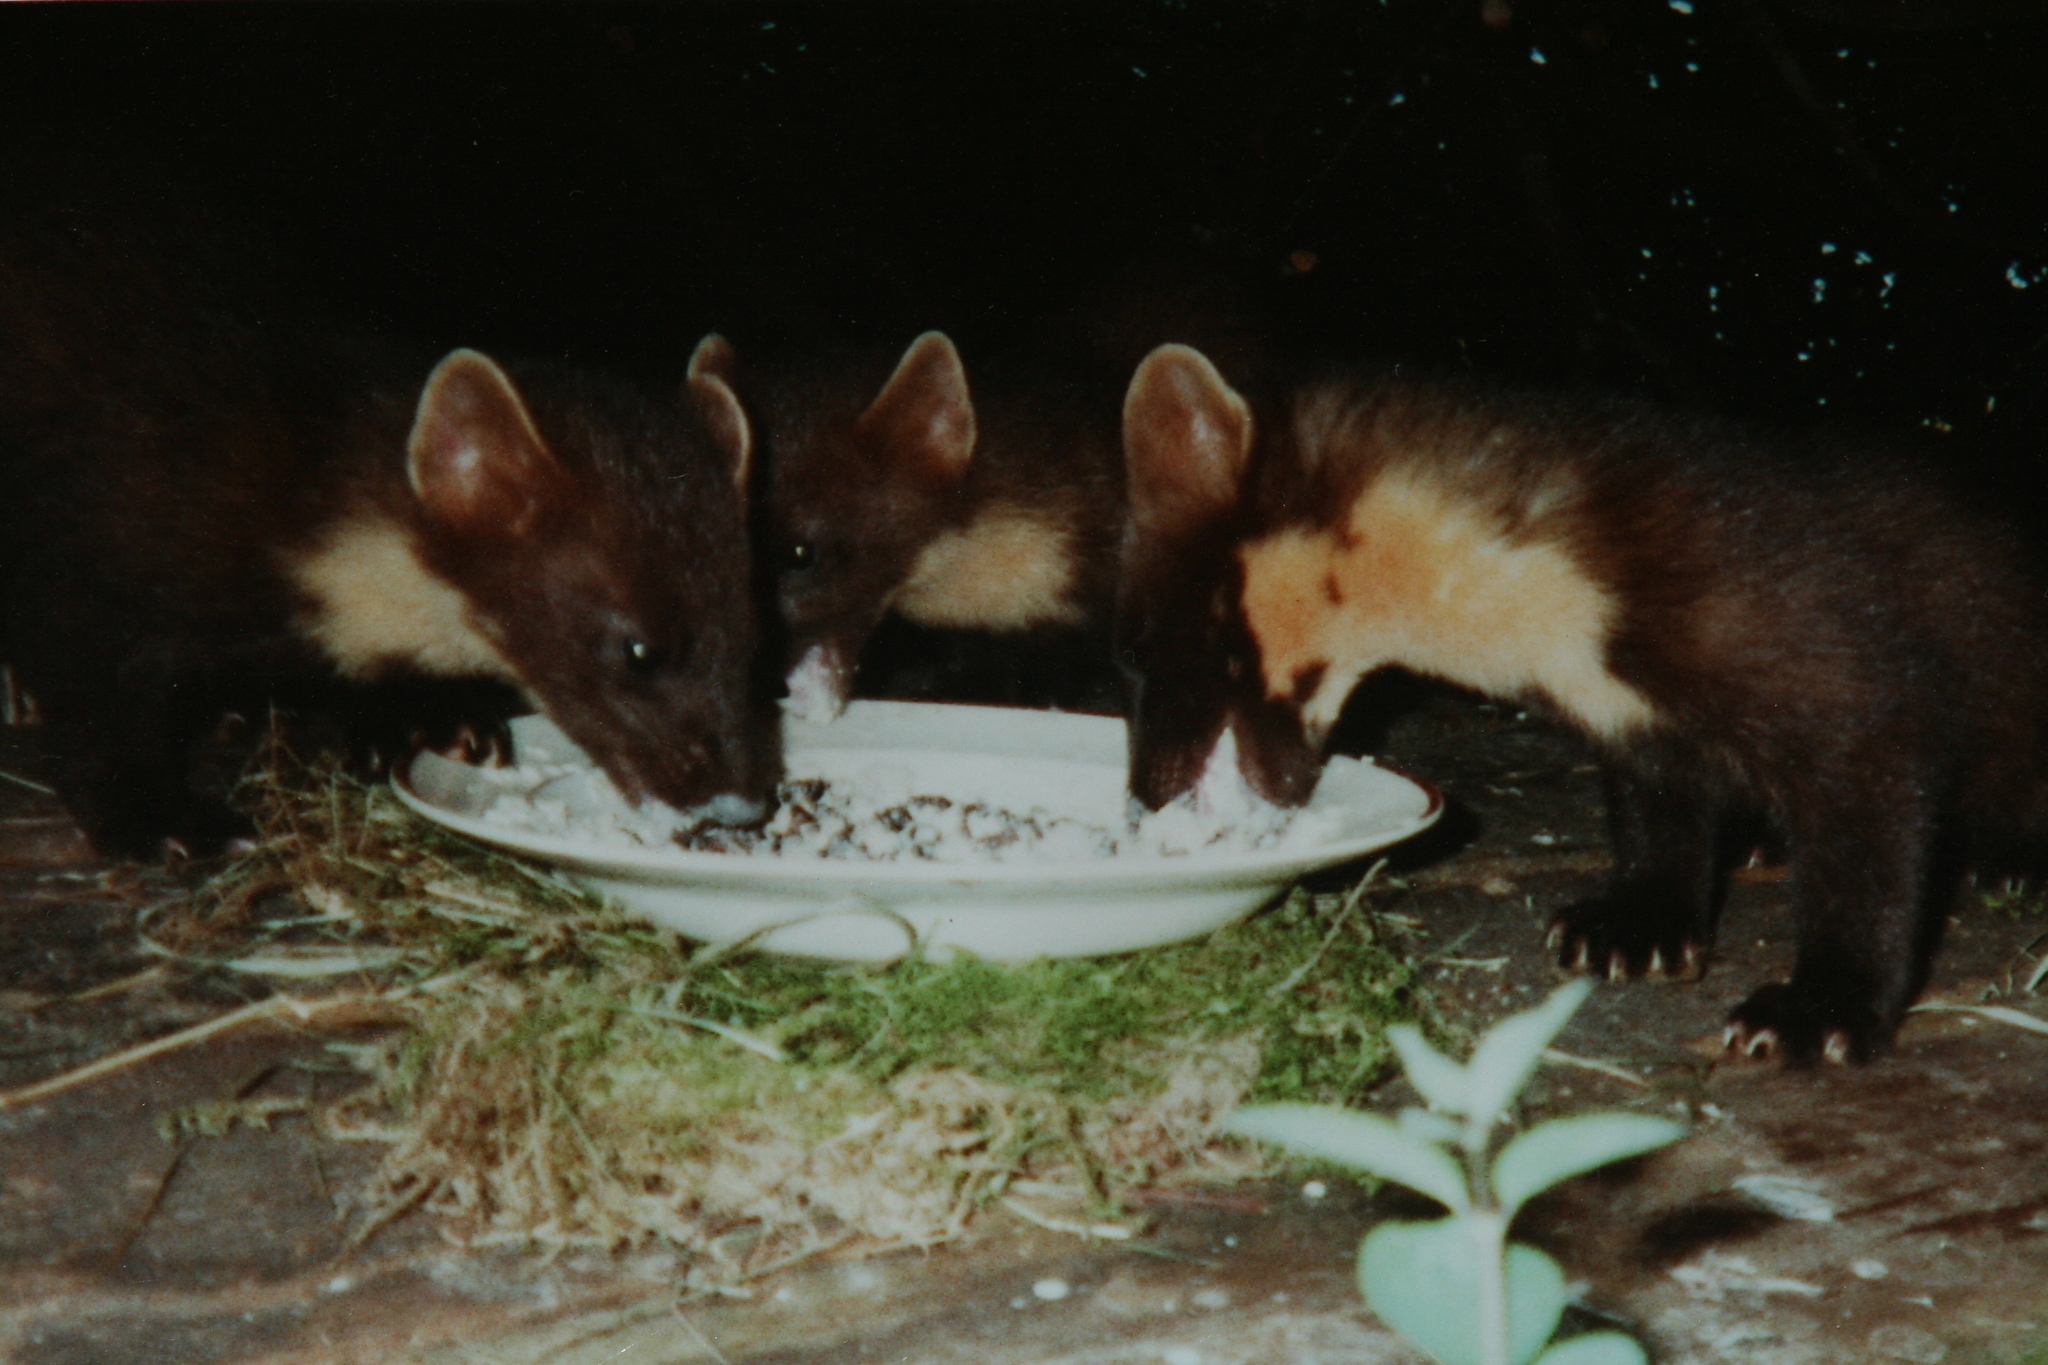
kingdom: Animalia
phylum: Chordata
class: Mammalia
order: Carnivora
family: Mustelidae
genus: Martes
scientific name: Martes martes
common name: European pine marten
